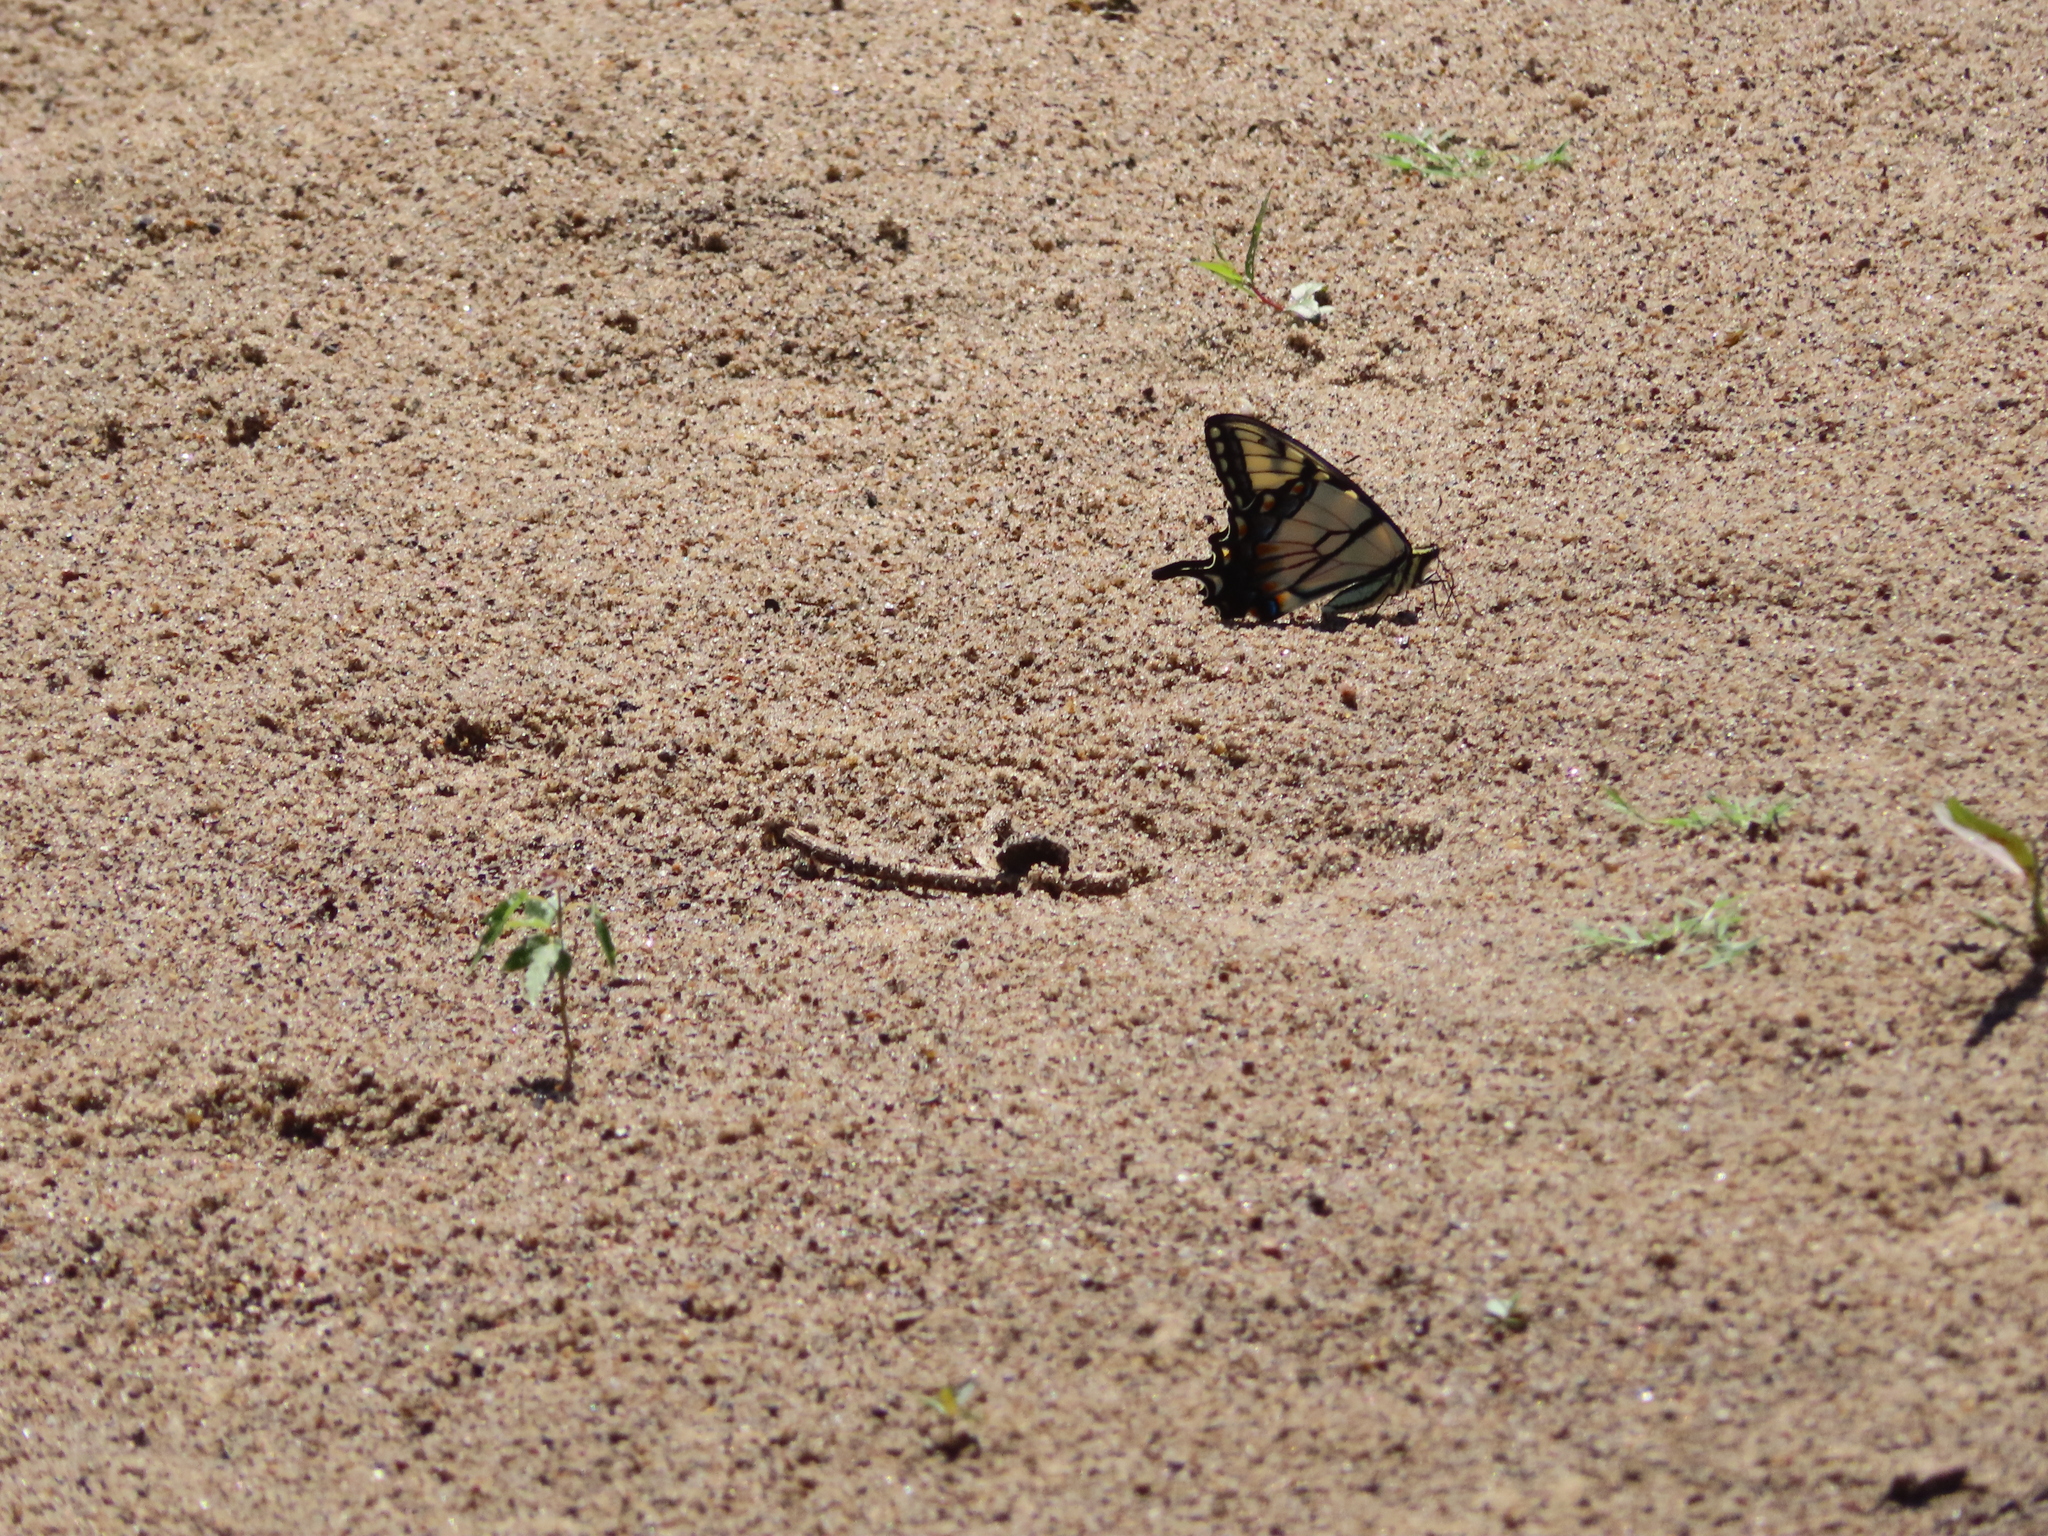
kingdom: Animalia
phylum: Arthropoda
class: Insecta
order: Lepidoptera
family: Papilionidae
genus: Papilio
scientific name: Papilio glaucus
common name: Tiger swallowtail
